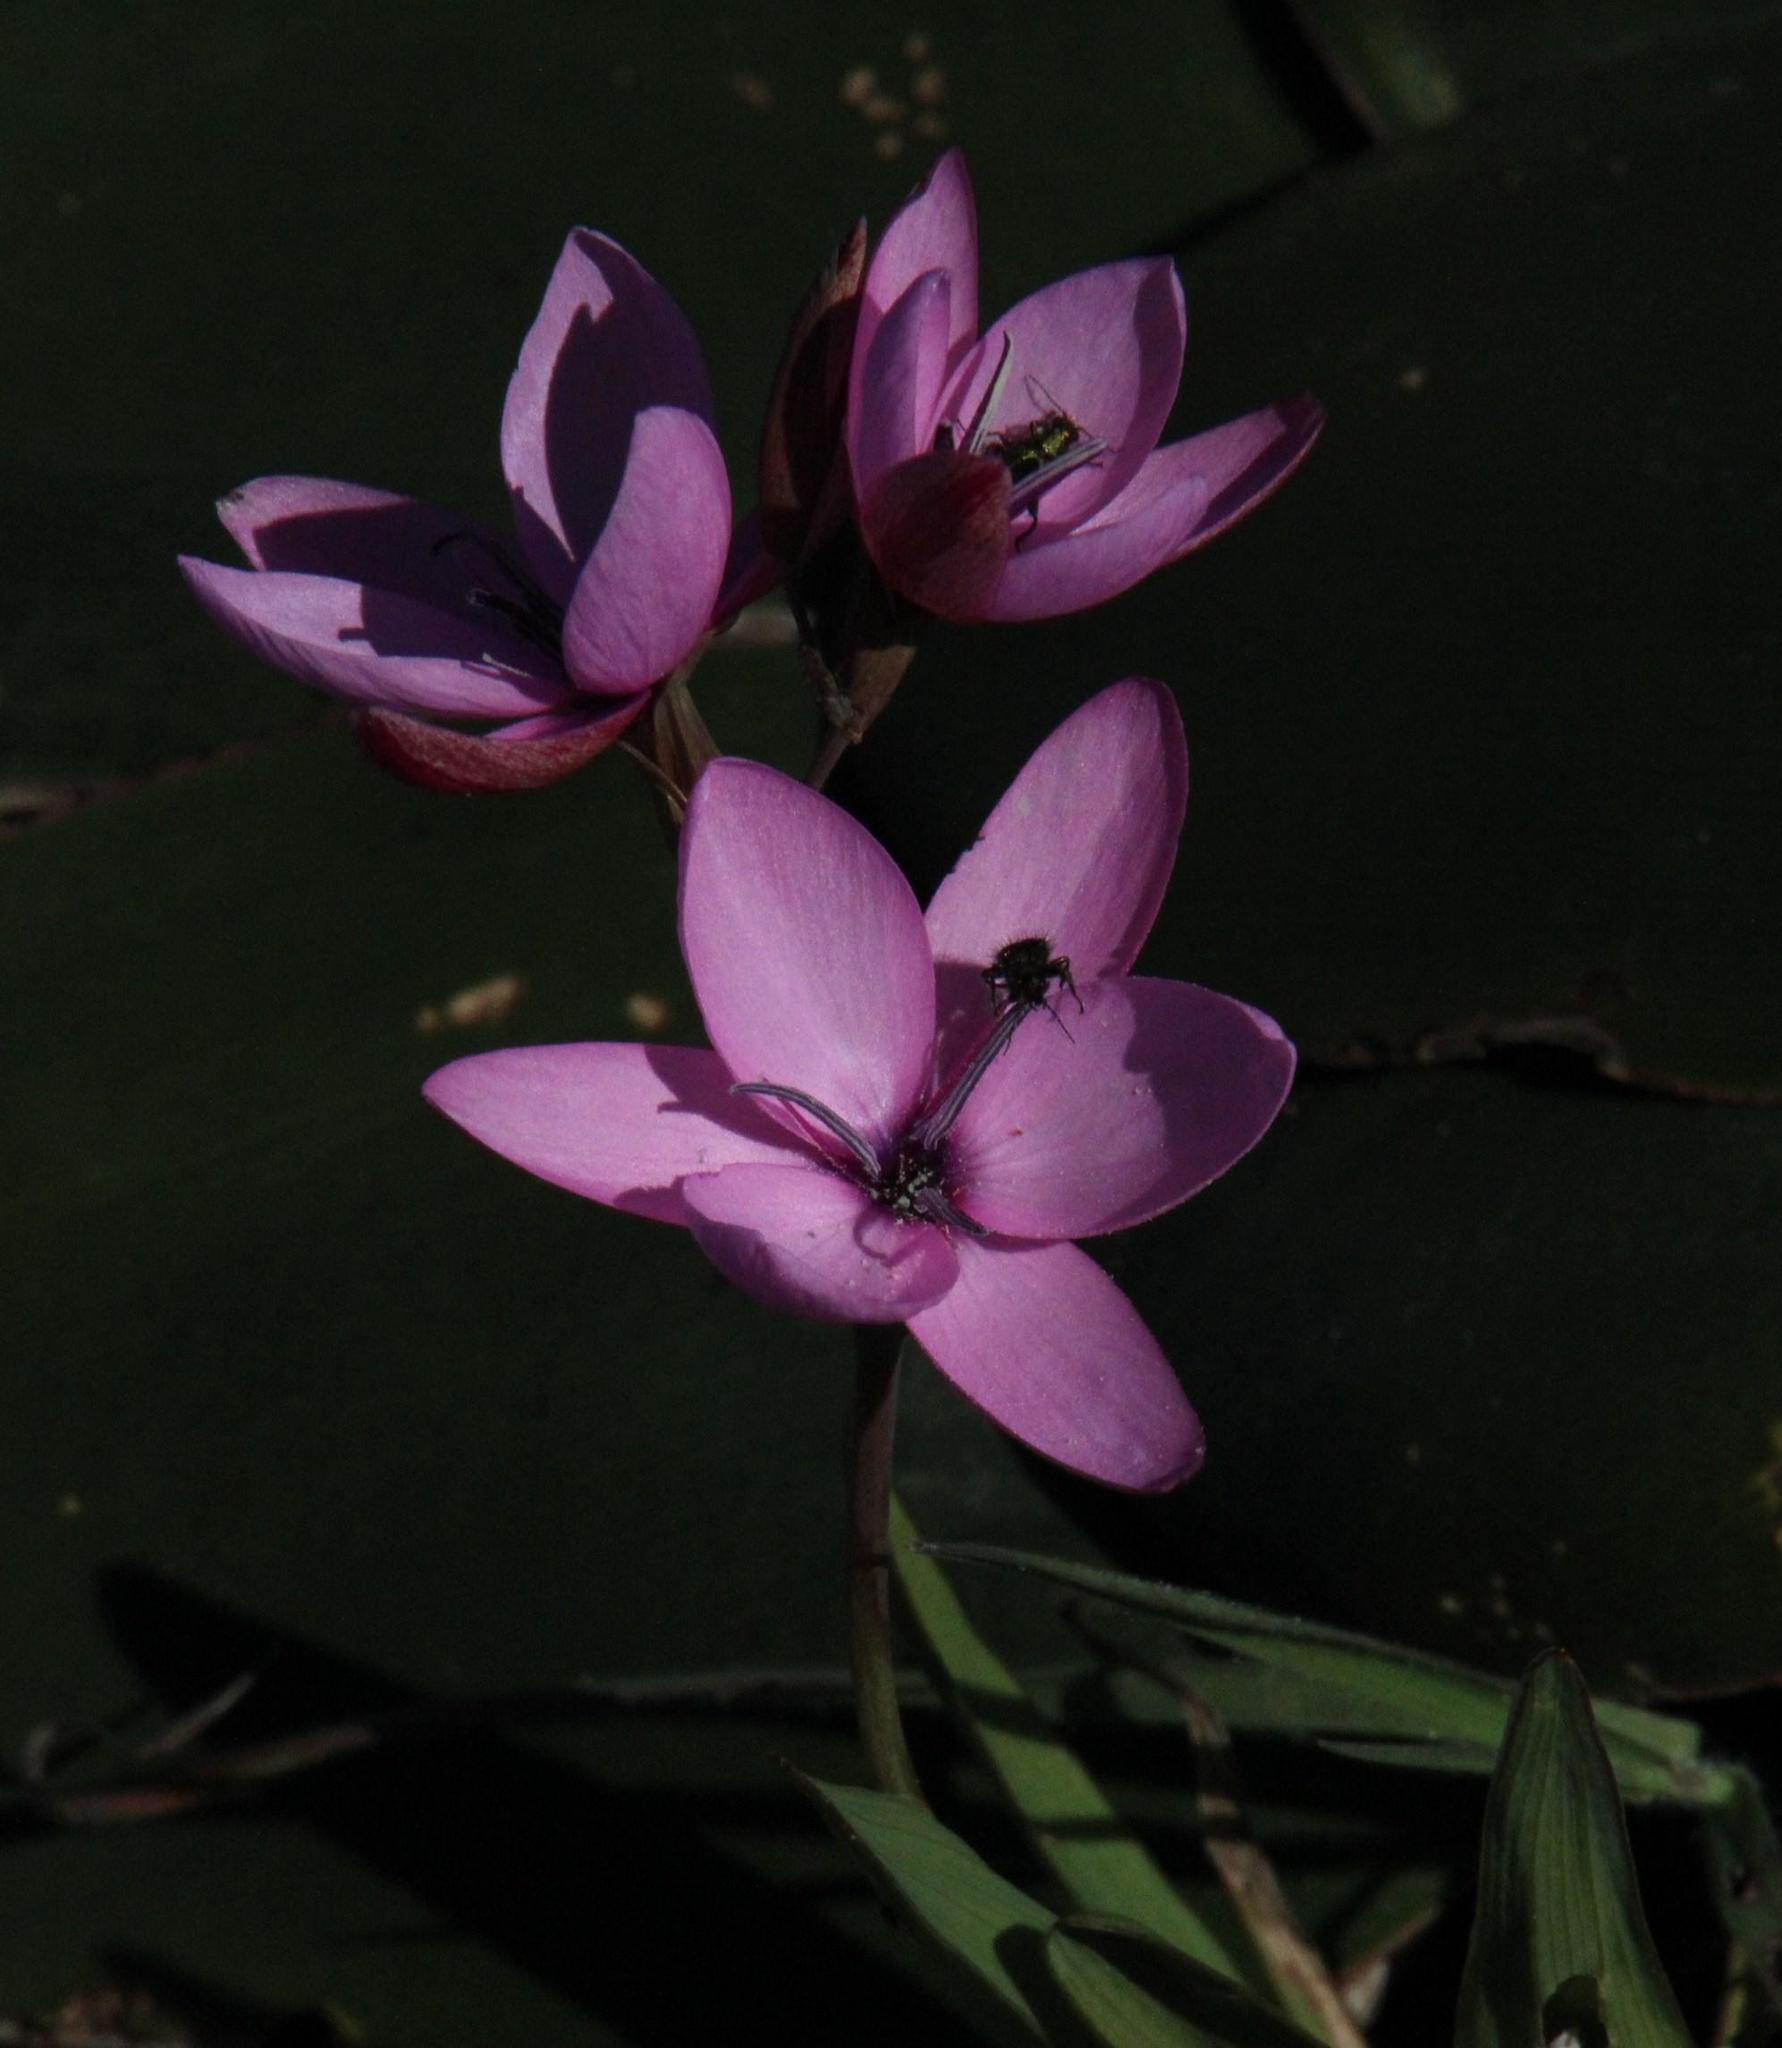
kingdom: Plantae
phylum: Tracheophyta
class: Liliopsida
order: Asparagales
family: Iridaceae
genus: Hesperantha
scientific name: Hesperantha pauciflora
